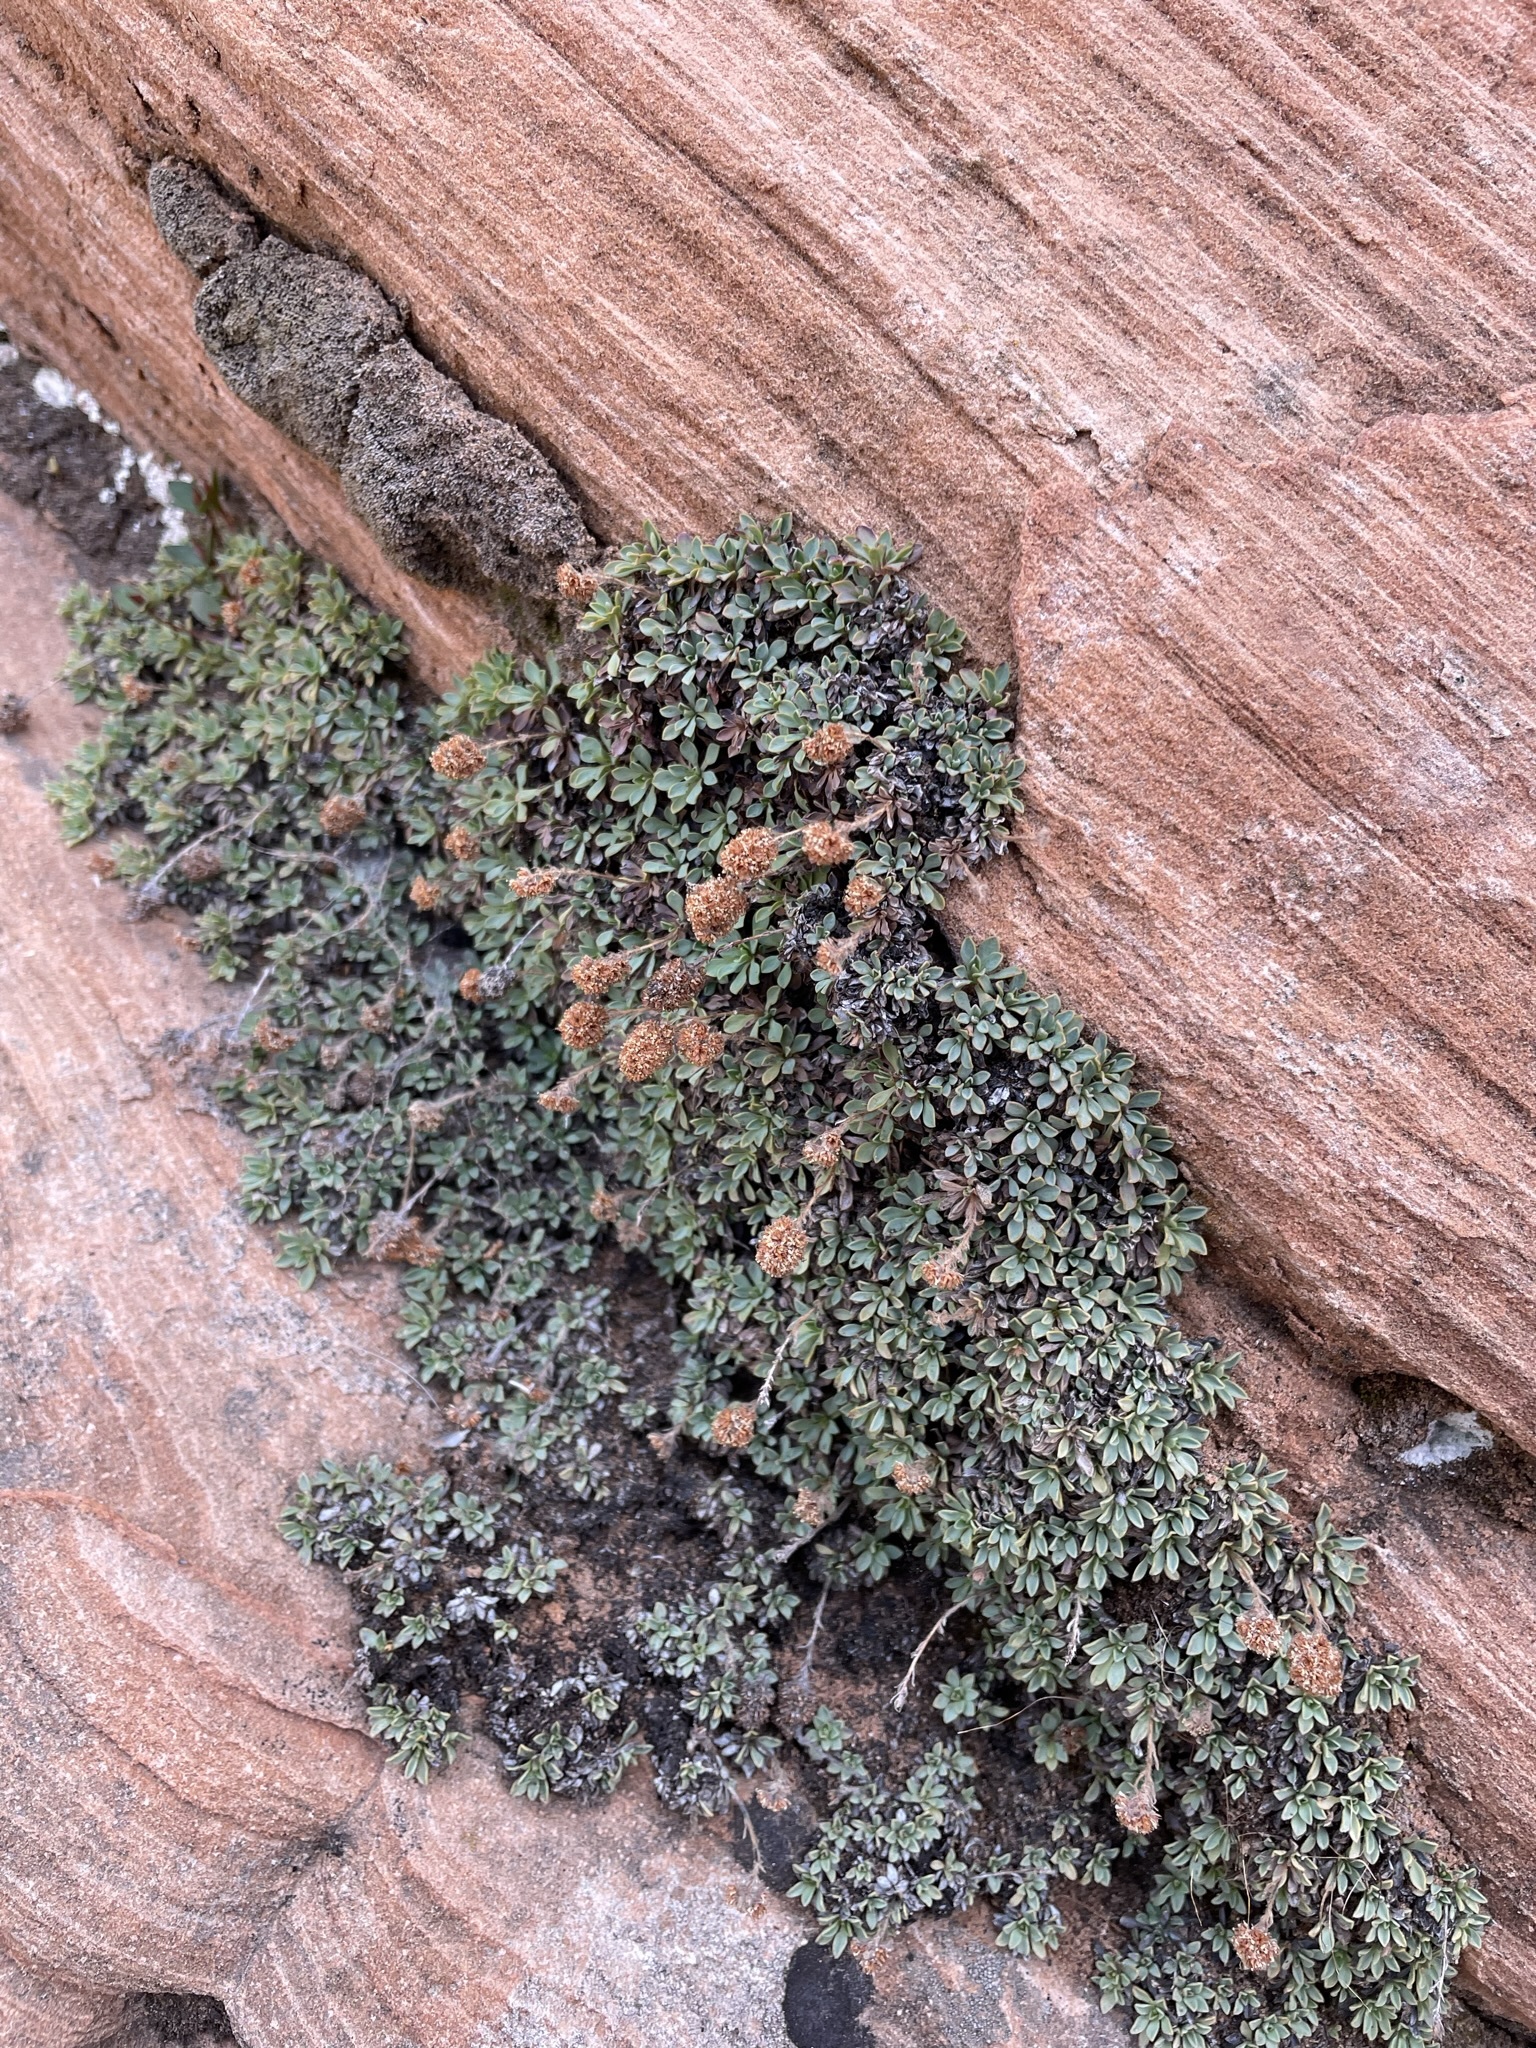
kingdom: Plantae
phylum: Tracheophyta
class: Magnoliopsida
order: Rosales
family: Rosaceae
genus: Petrophytum
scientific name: Petrophytum caespitosum
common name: Mat rockspirea
